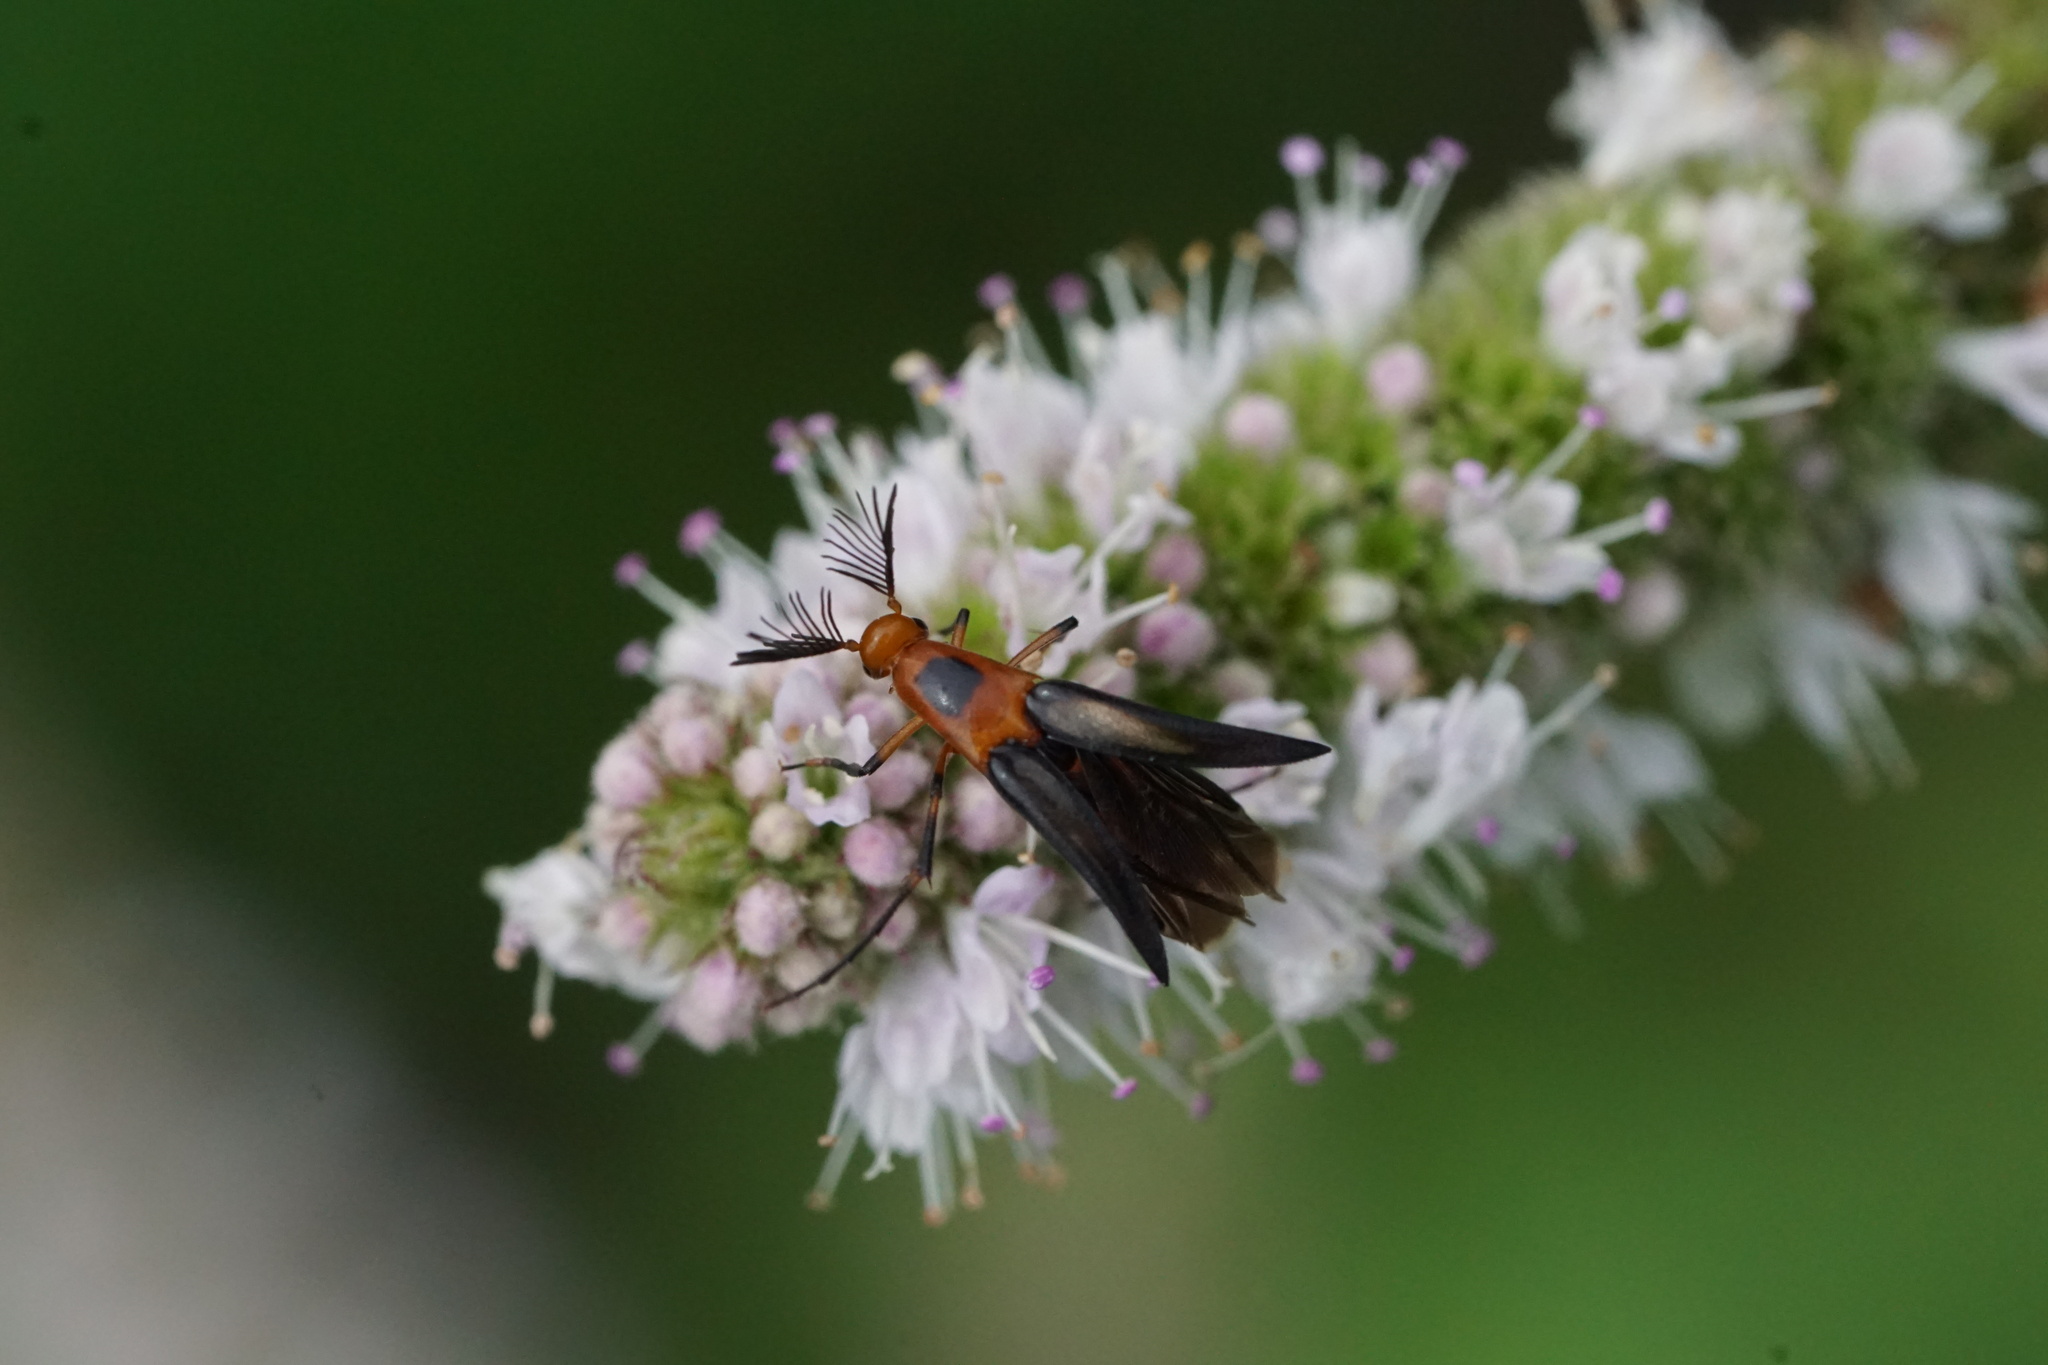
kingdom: Animalia
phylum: Arthropoda
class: Insecta
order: Coleoptera
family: Ripiphoridae
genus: Macrosiagon
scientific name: Macrosiagon limbatum
